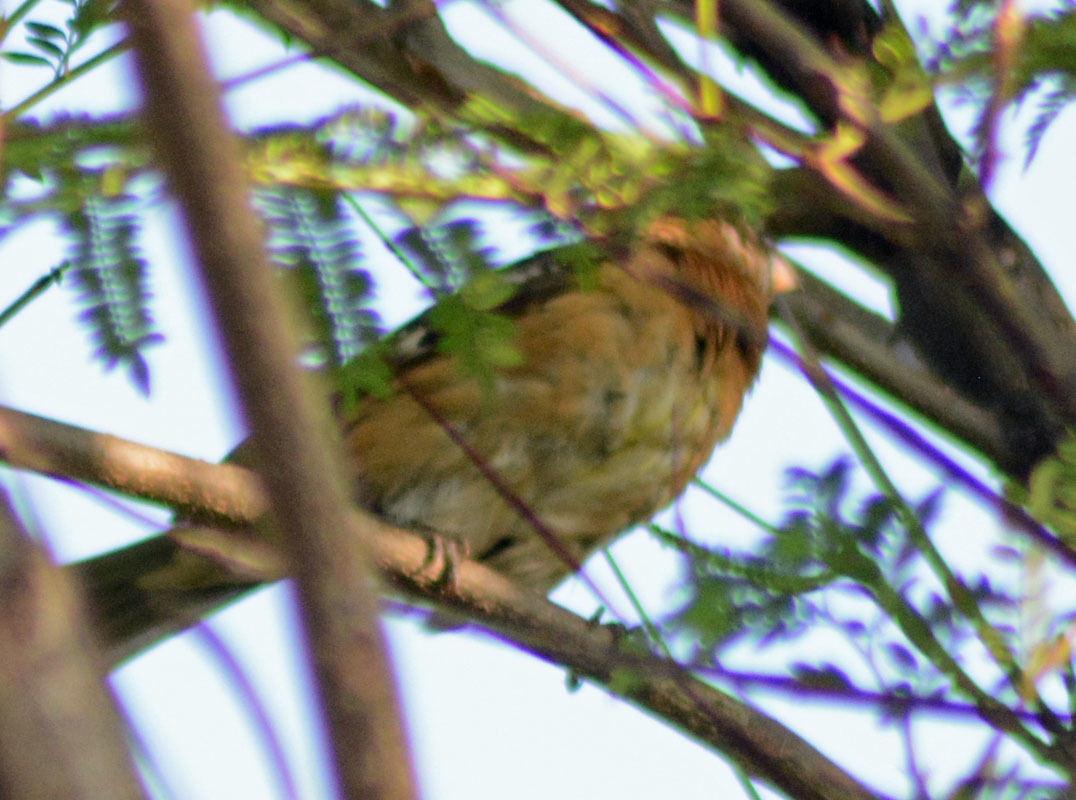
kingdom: Animalia
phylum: Chordata
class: Aves
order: Passeriformes
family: Cardinalidae
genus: Pheucticus
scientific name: Pheucticus melanocephalus
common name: Black-headed grosbeak
